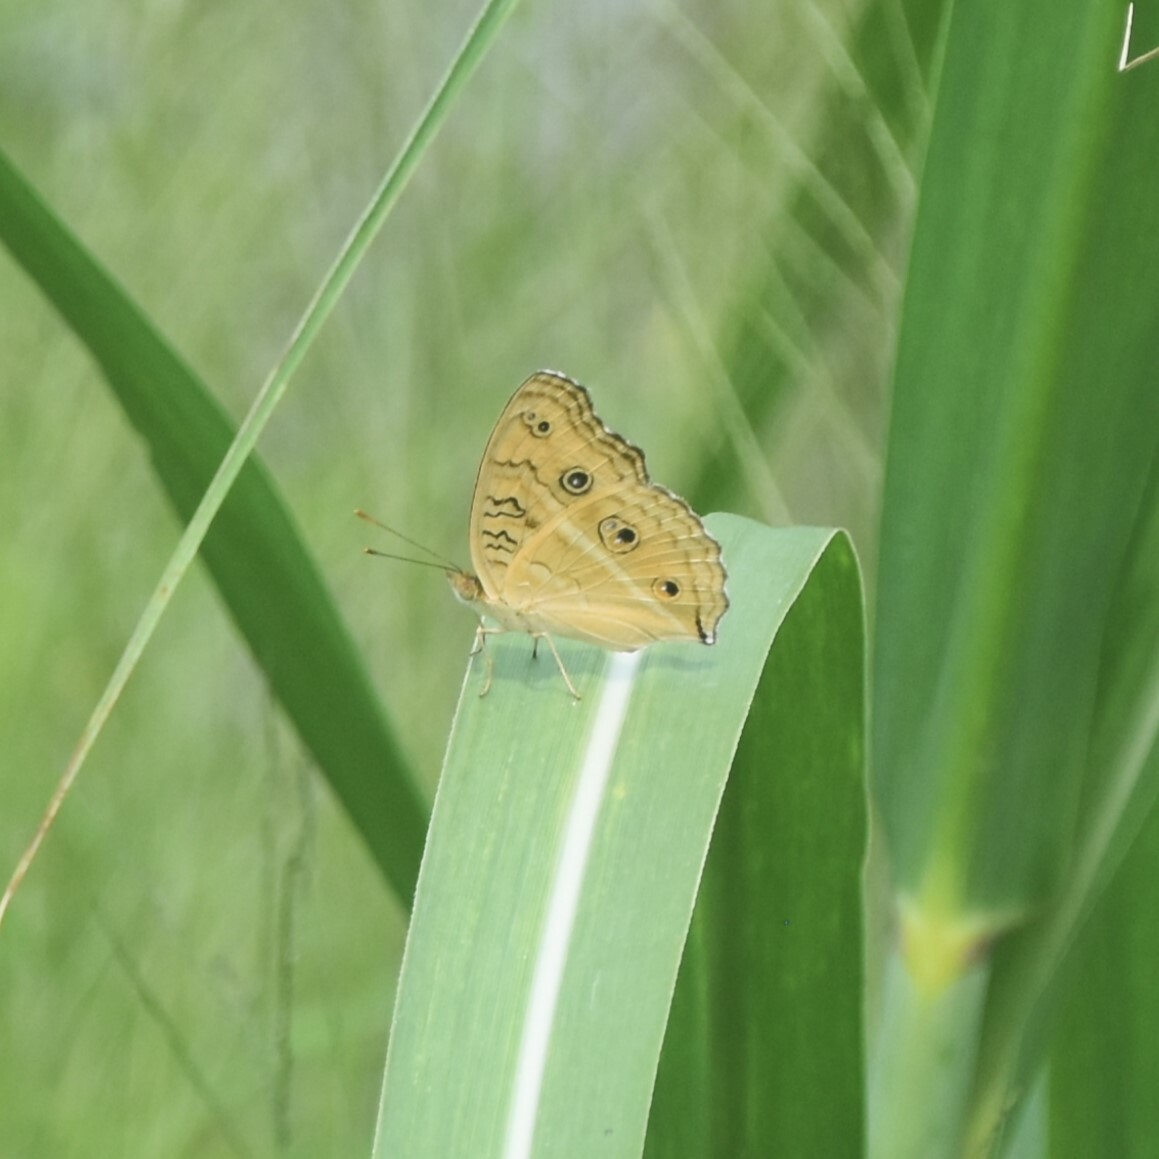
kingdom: Animalia
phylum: Arthropoda
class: Insecta
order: Lepidoptera
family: Nymphalidae
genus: Junonia
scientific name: Junonia almana
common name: Peacock pansy
